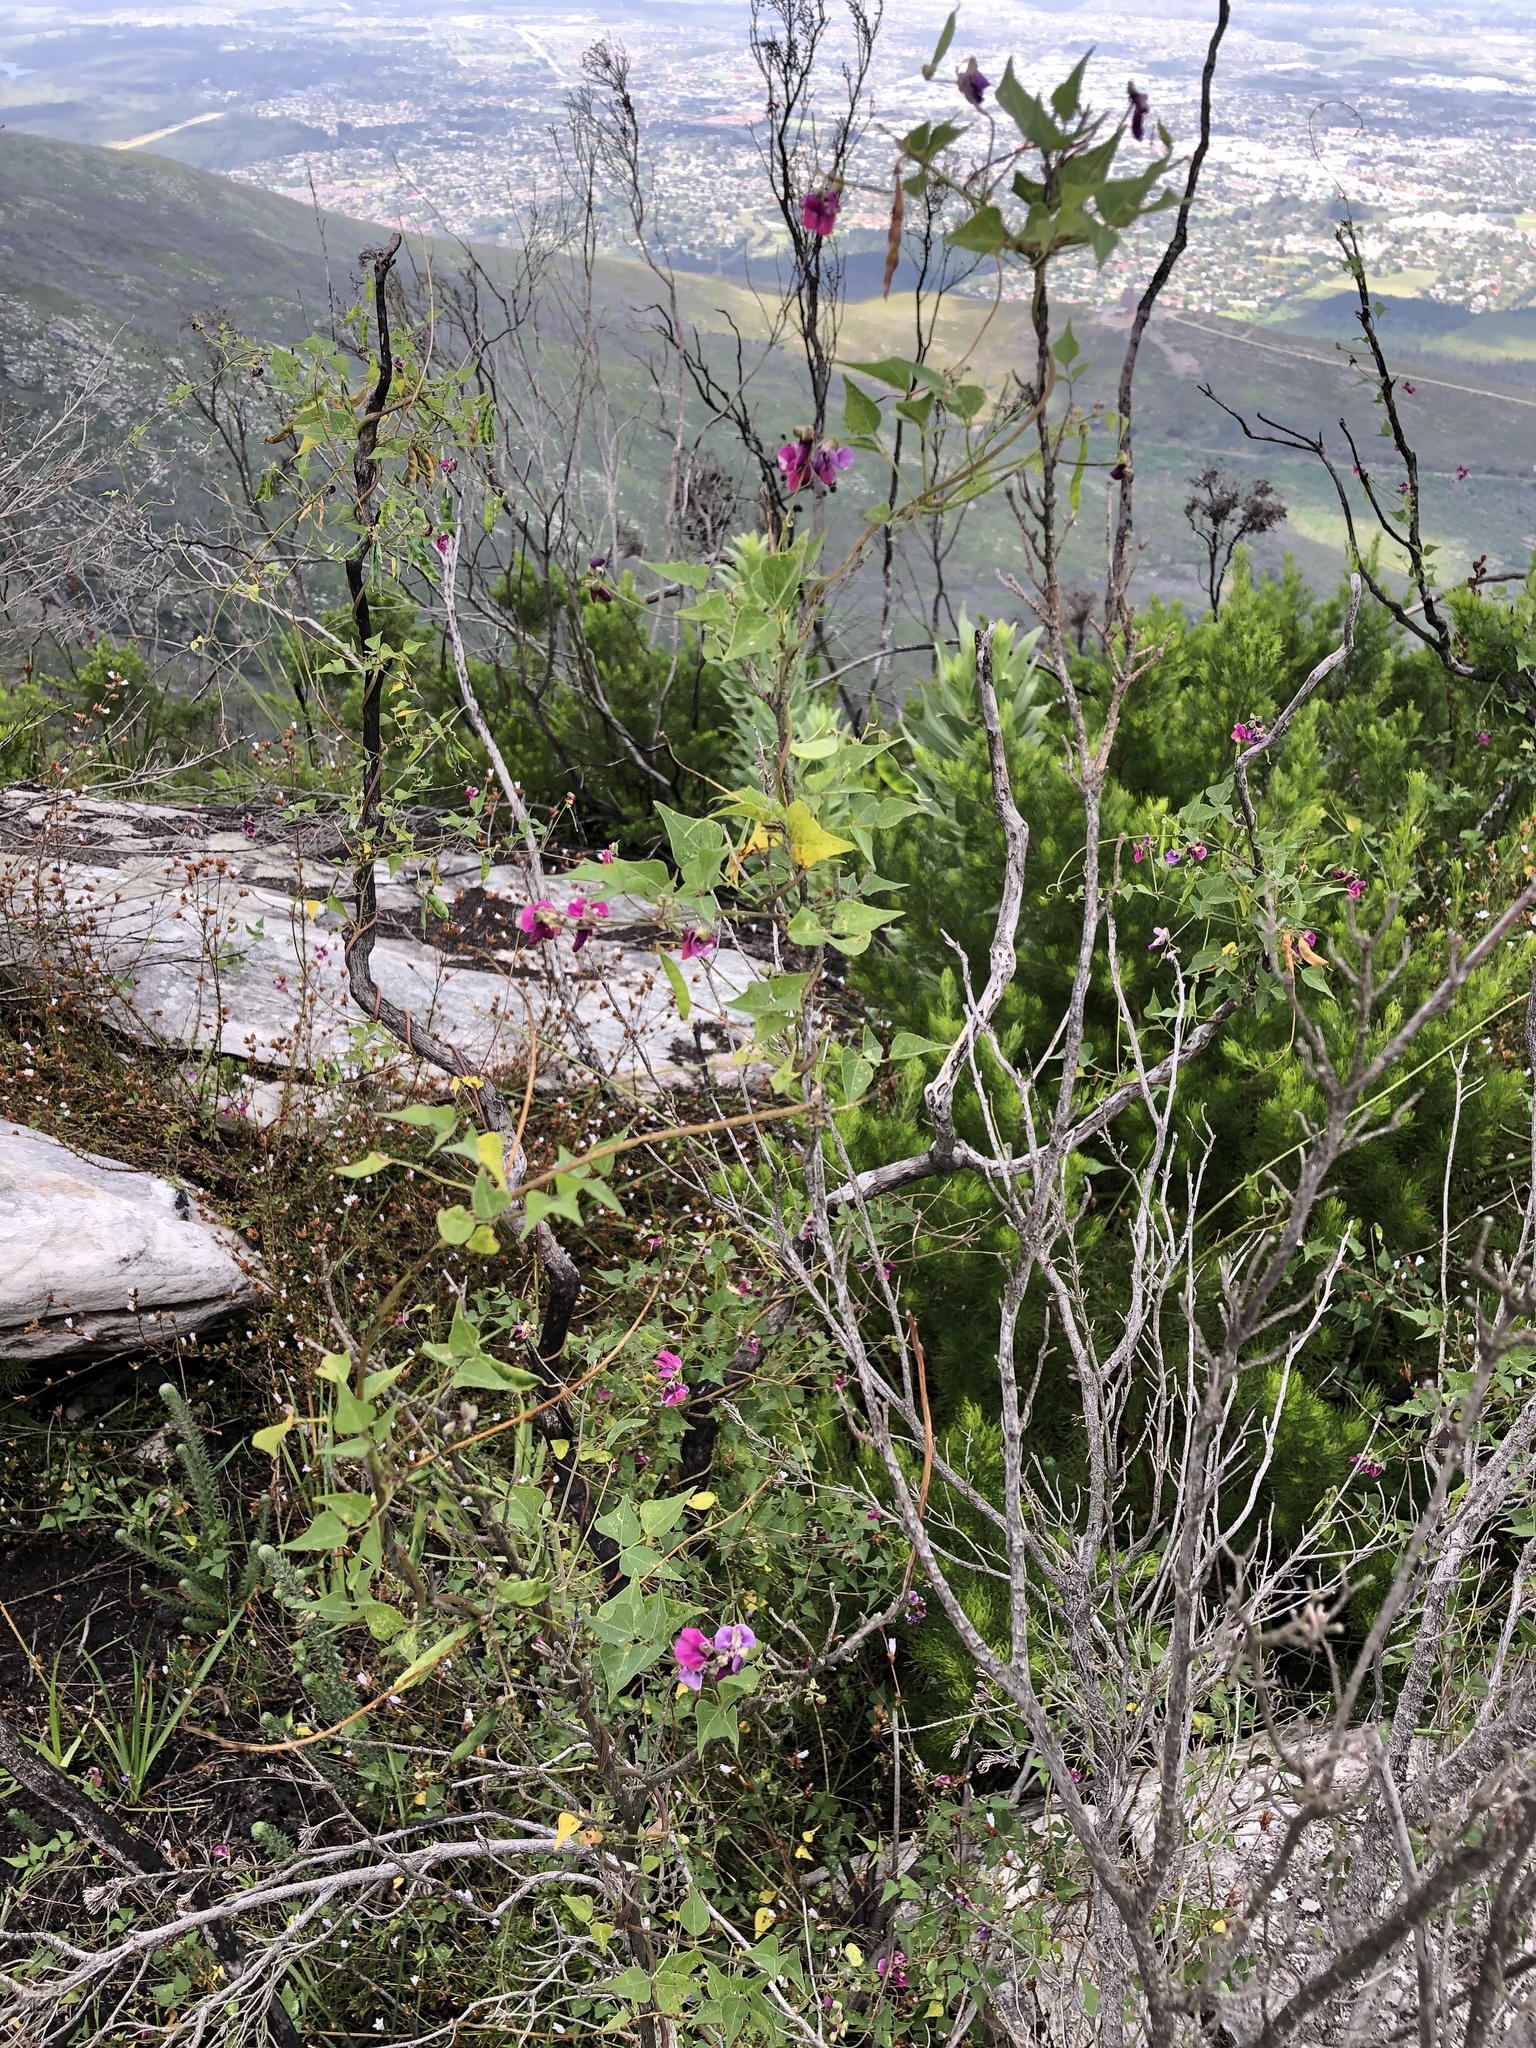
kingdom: Plantae
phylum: Tracheophyta
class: Magnoliopsida
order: Fabales
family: Fabaceae
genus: Dipogon
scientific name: Dipogon lignosus
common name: Okie bean
